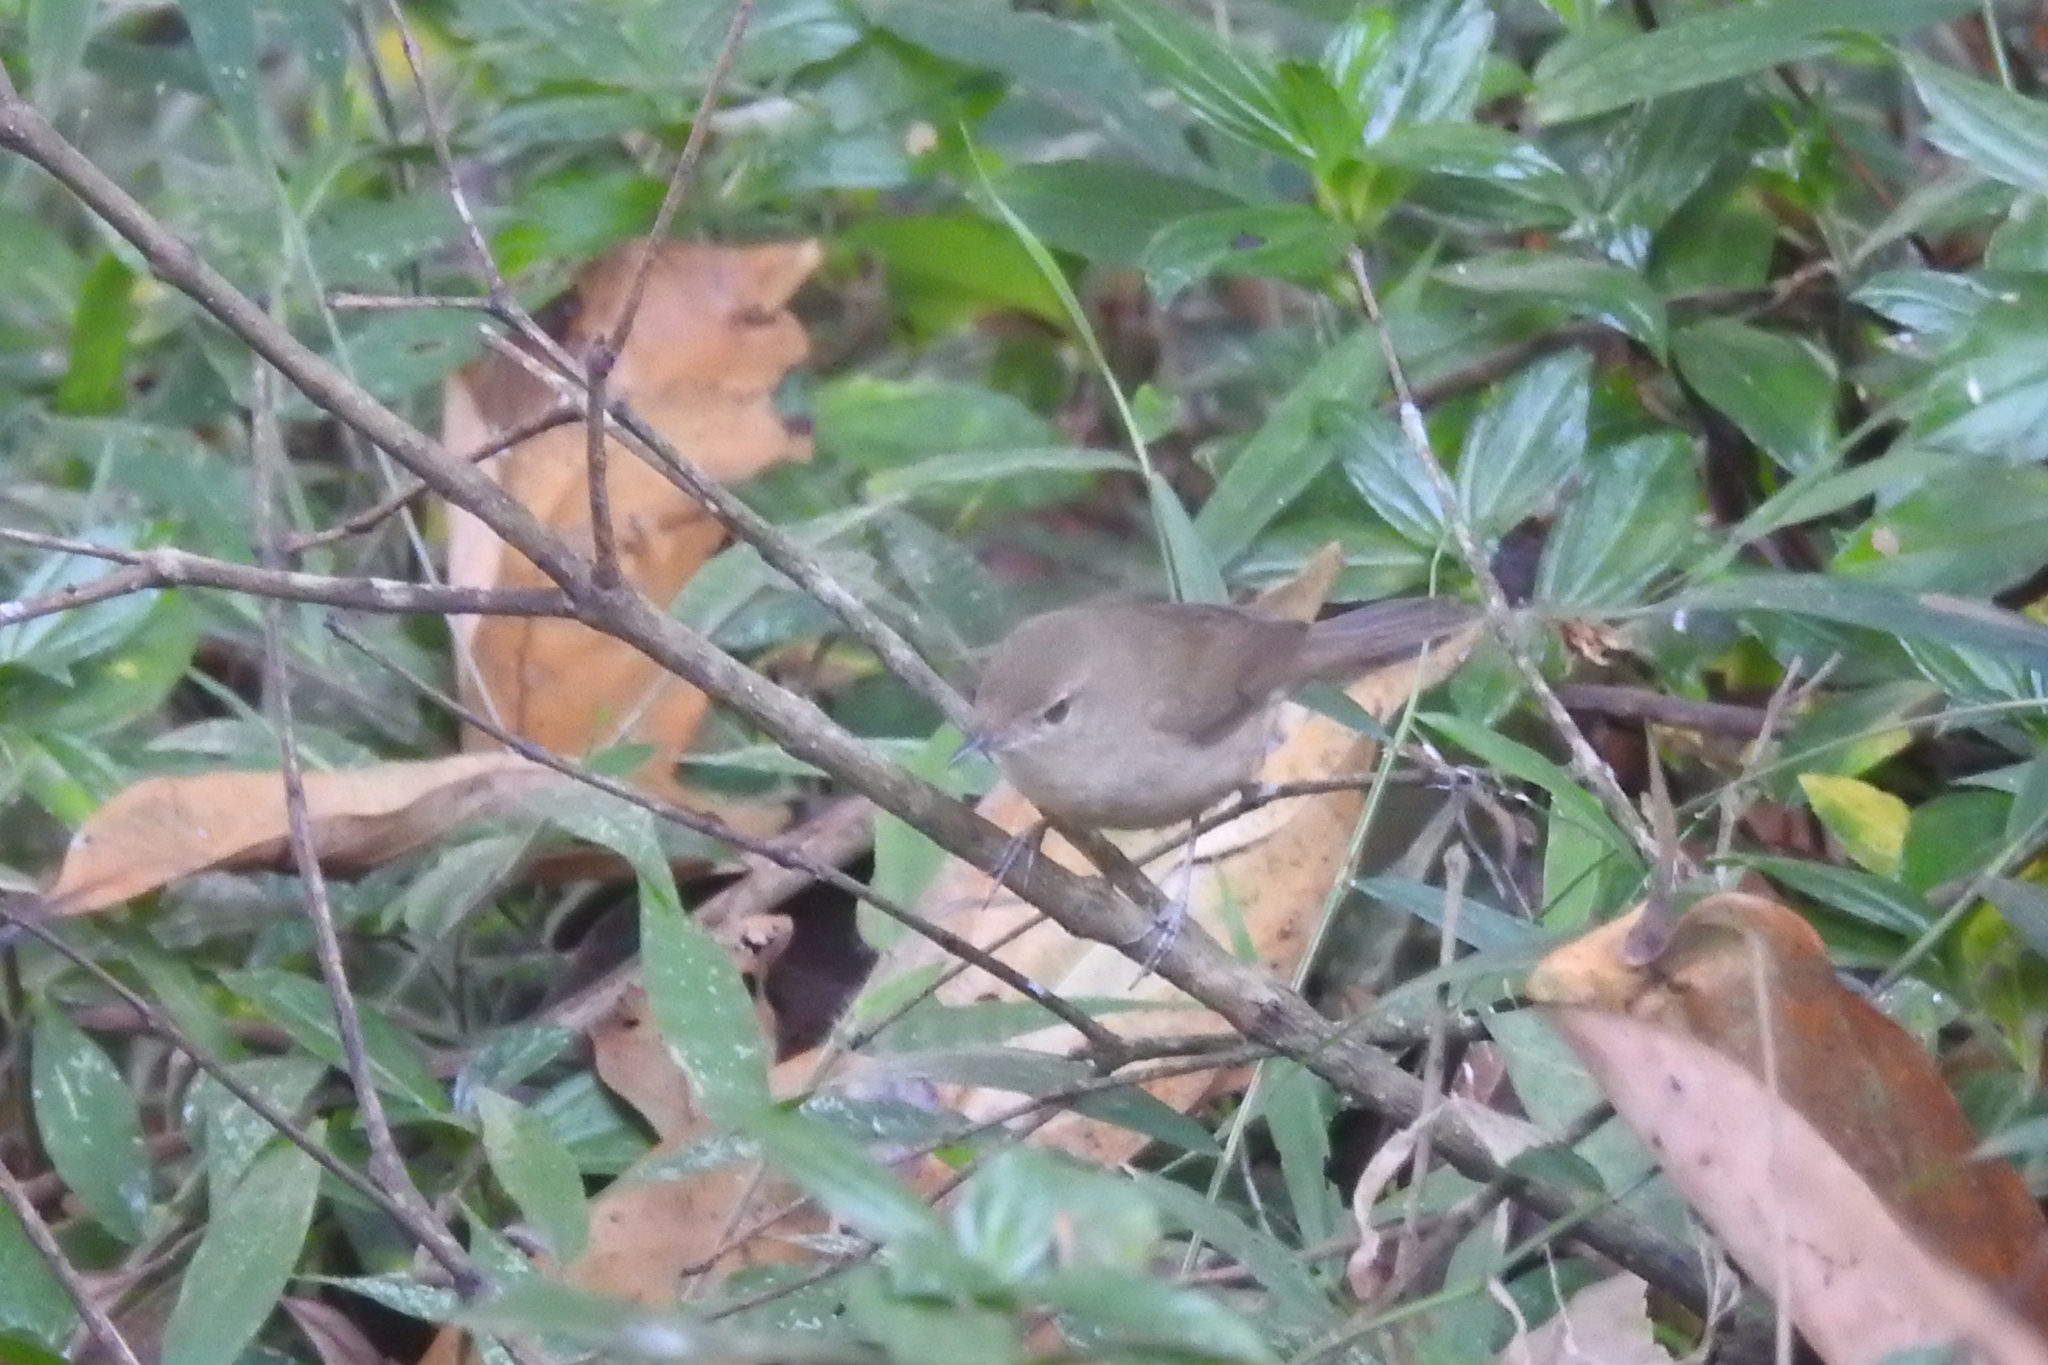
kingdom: Animalia
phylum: Chordata
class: Aves
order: Passeriformes
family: Acrocephalidae
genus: Acrocephalus
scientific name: Acrocephalus dumetorum
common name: Blyth's reed warbler
